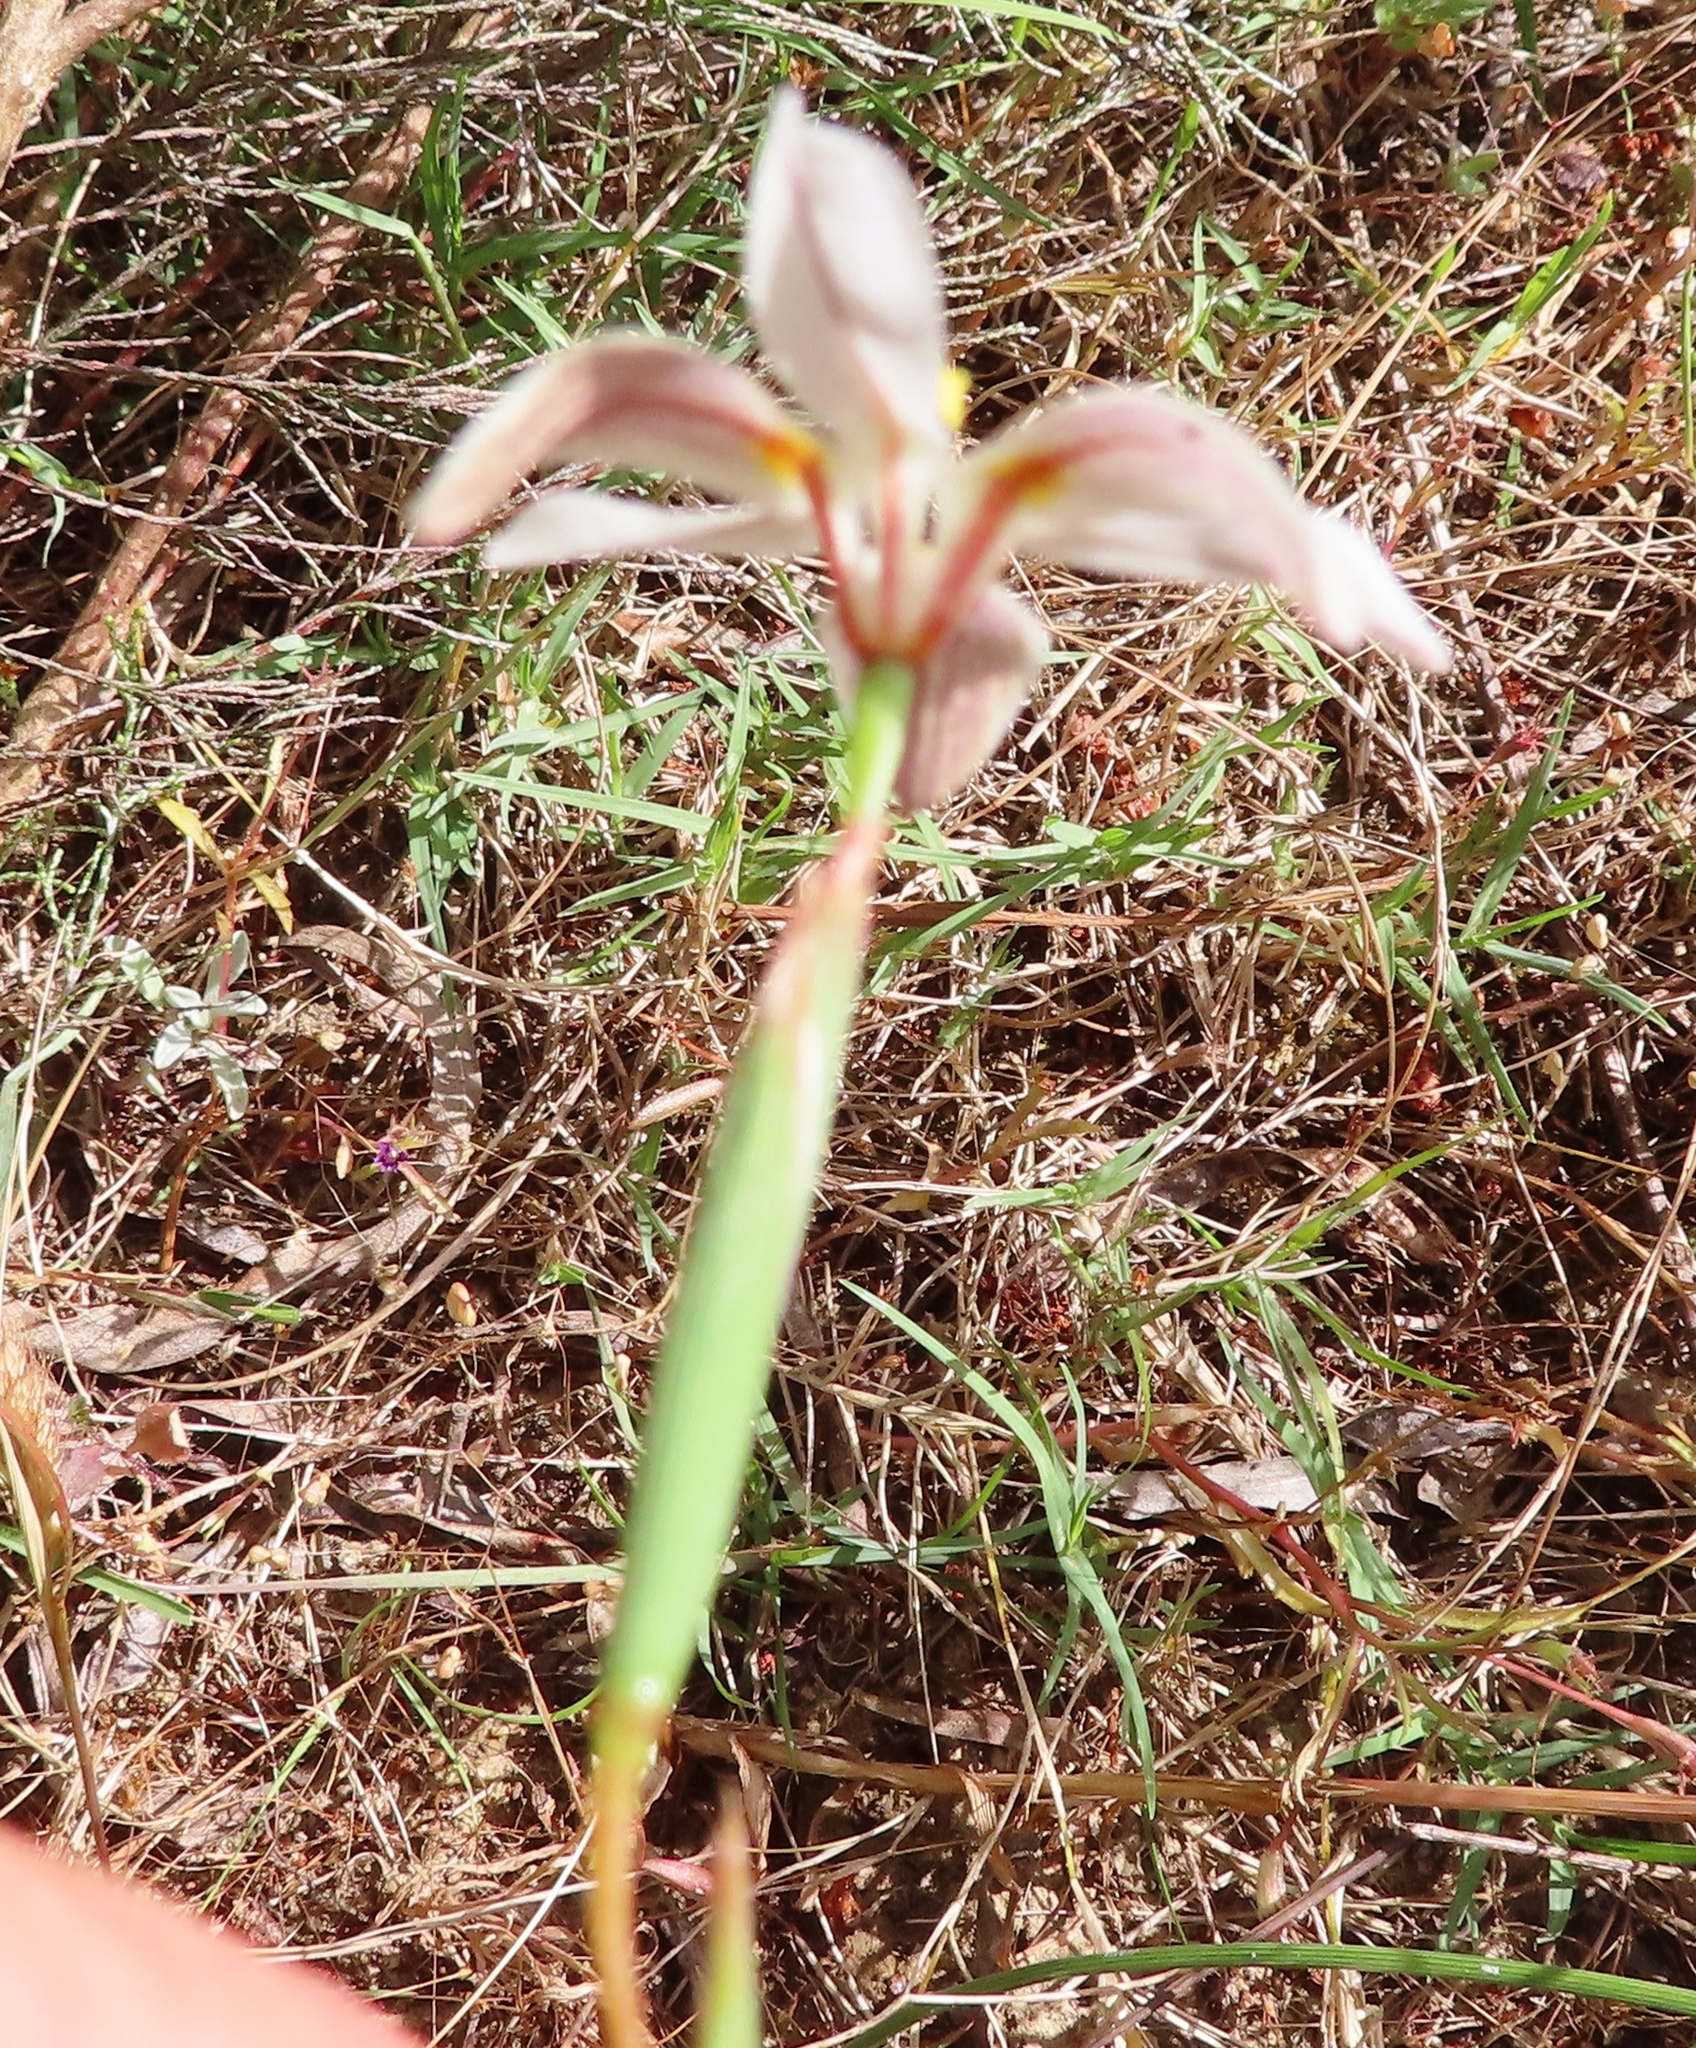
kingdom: Plantae
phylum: Tracheophyta
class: Liliopsida
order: Asparagales
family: Iridaceae
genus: Moraea
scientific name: Moraea elsiae
